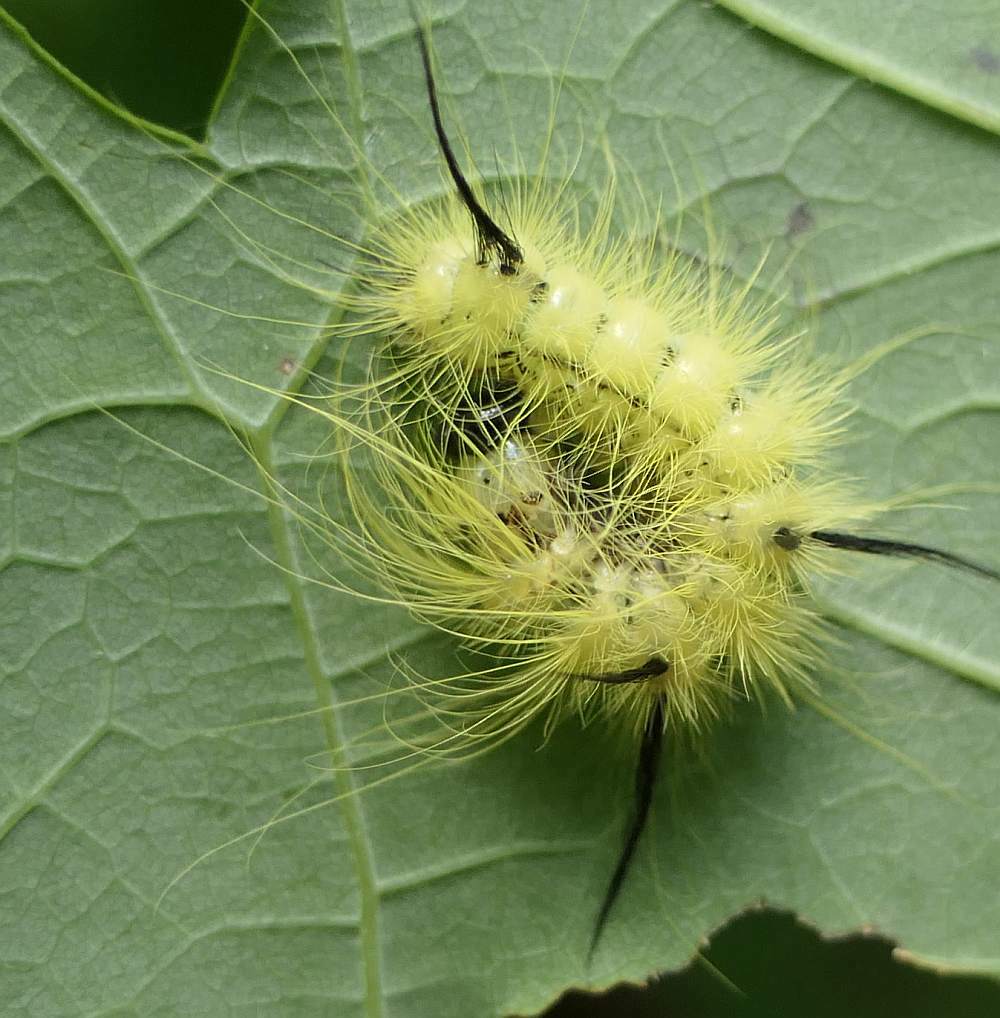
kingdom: Animalia
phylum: Arthropoda
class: Insecta
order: Lepidoptera
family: Noctuidae
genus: Acronicta
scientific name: Acronicta americana
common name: American dagger
